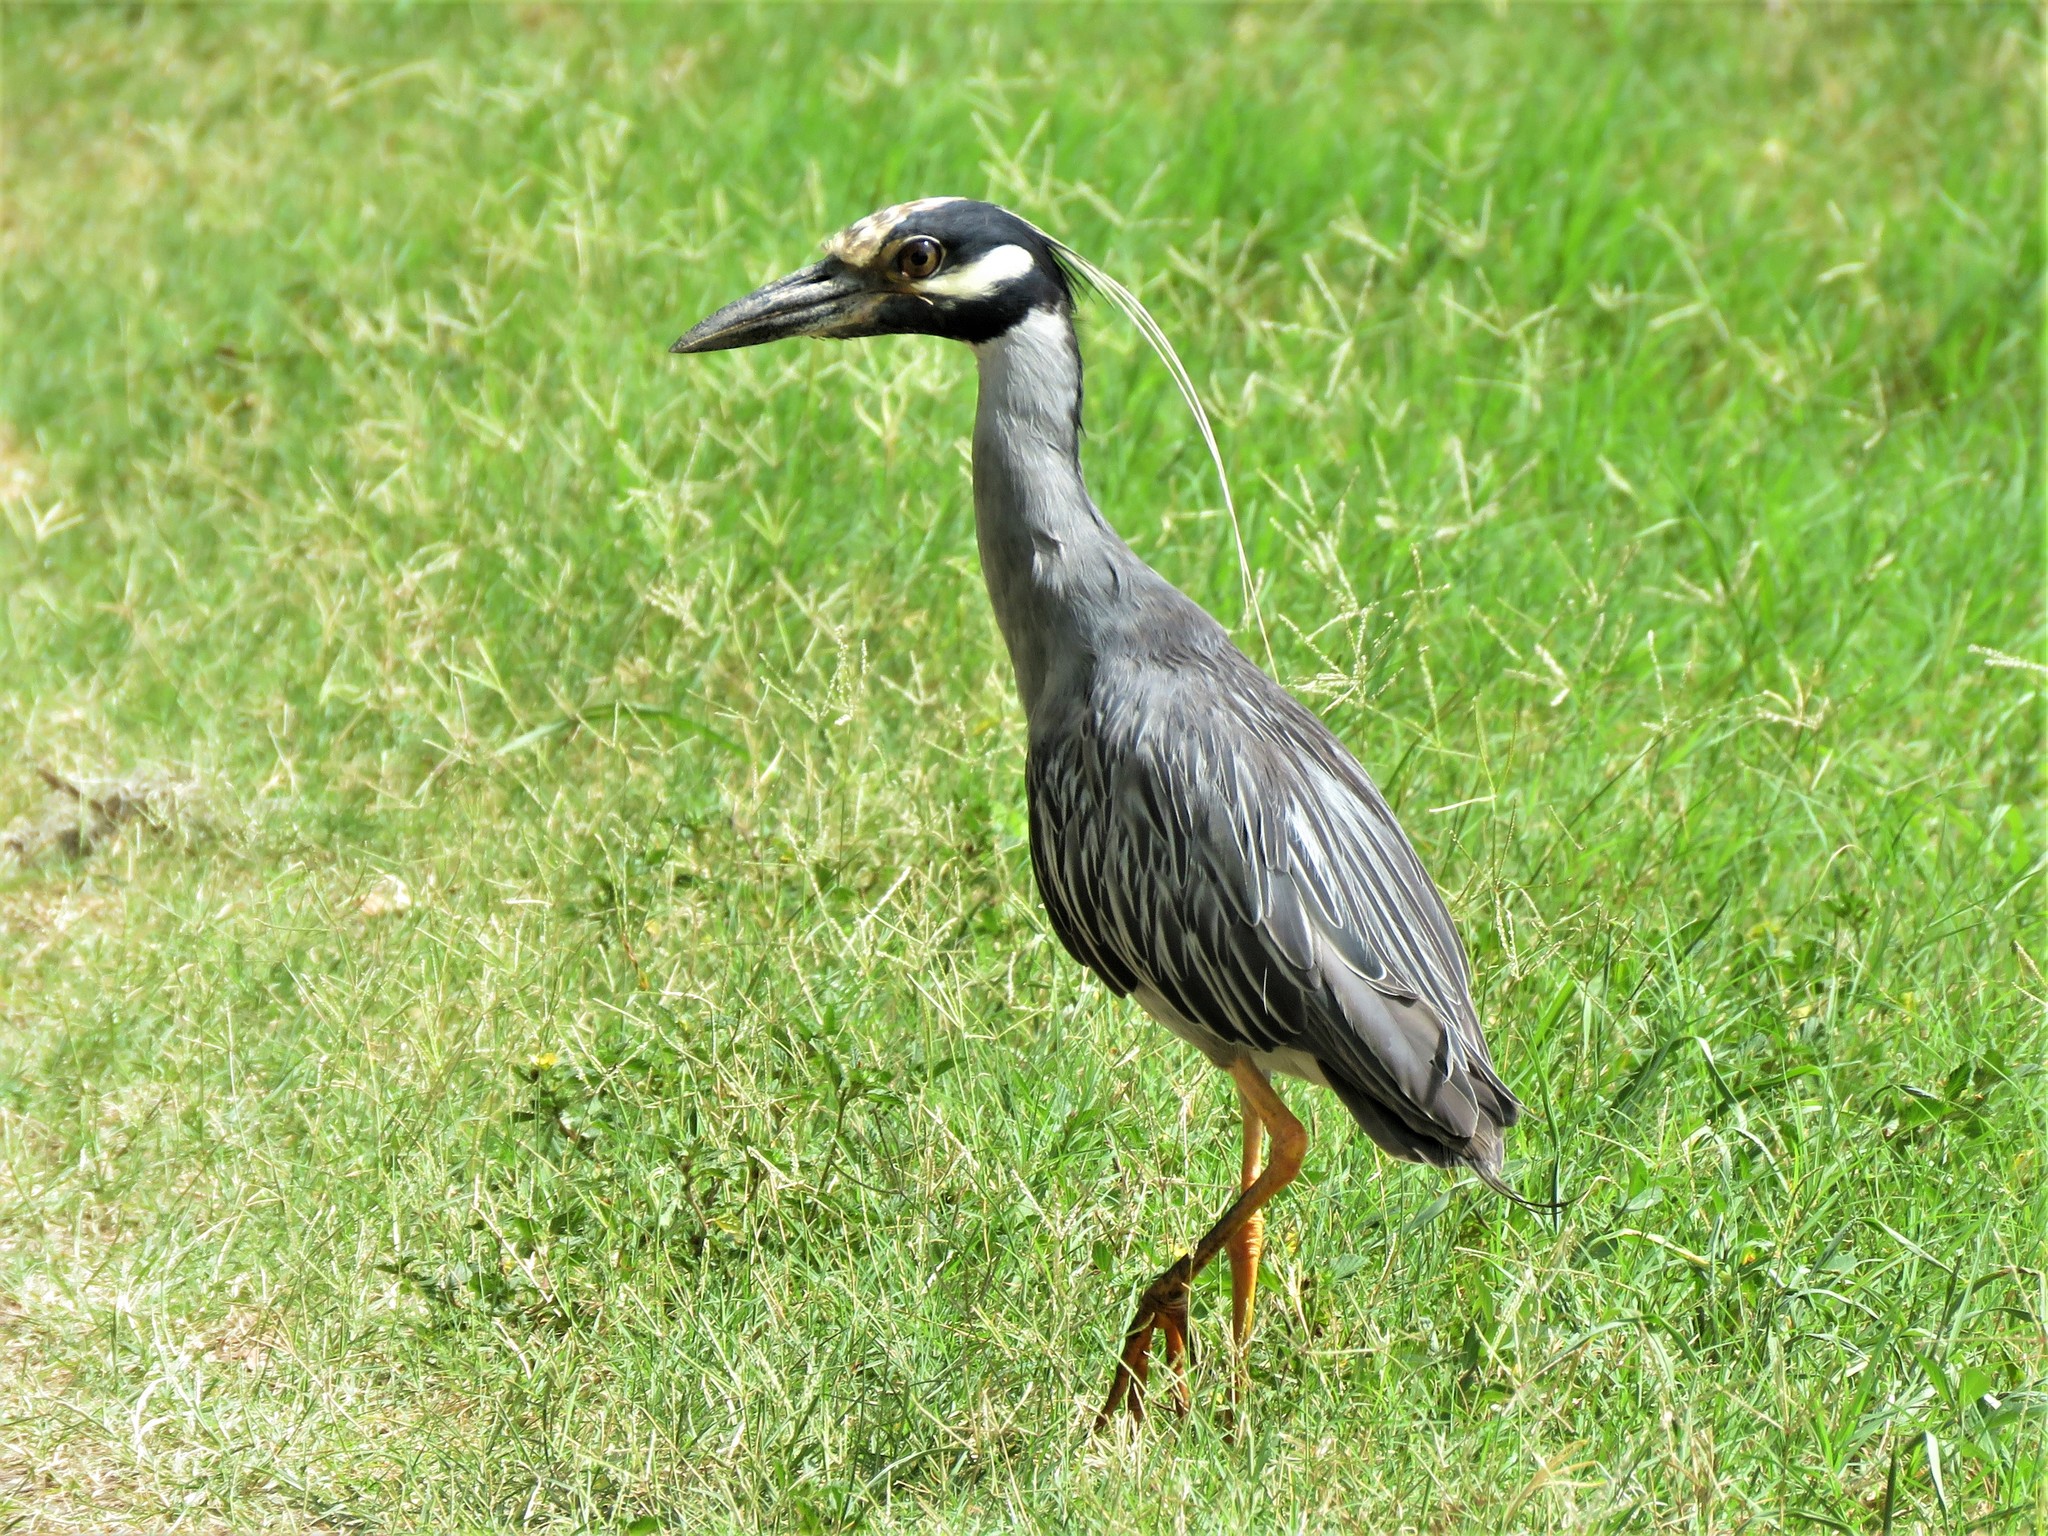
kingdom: Animalia
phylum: Chordata
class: Aves
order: Pelecaniformes
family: Ardeidae
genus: Nyctanassa
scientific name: Nyctanassa violacea
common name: Yellow-crowned night heron
